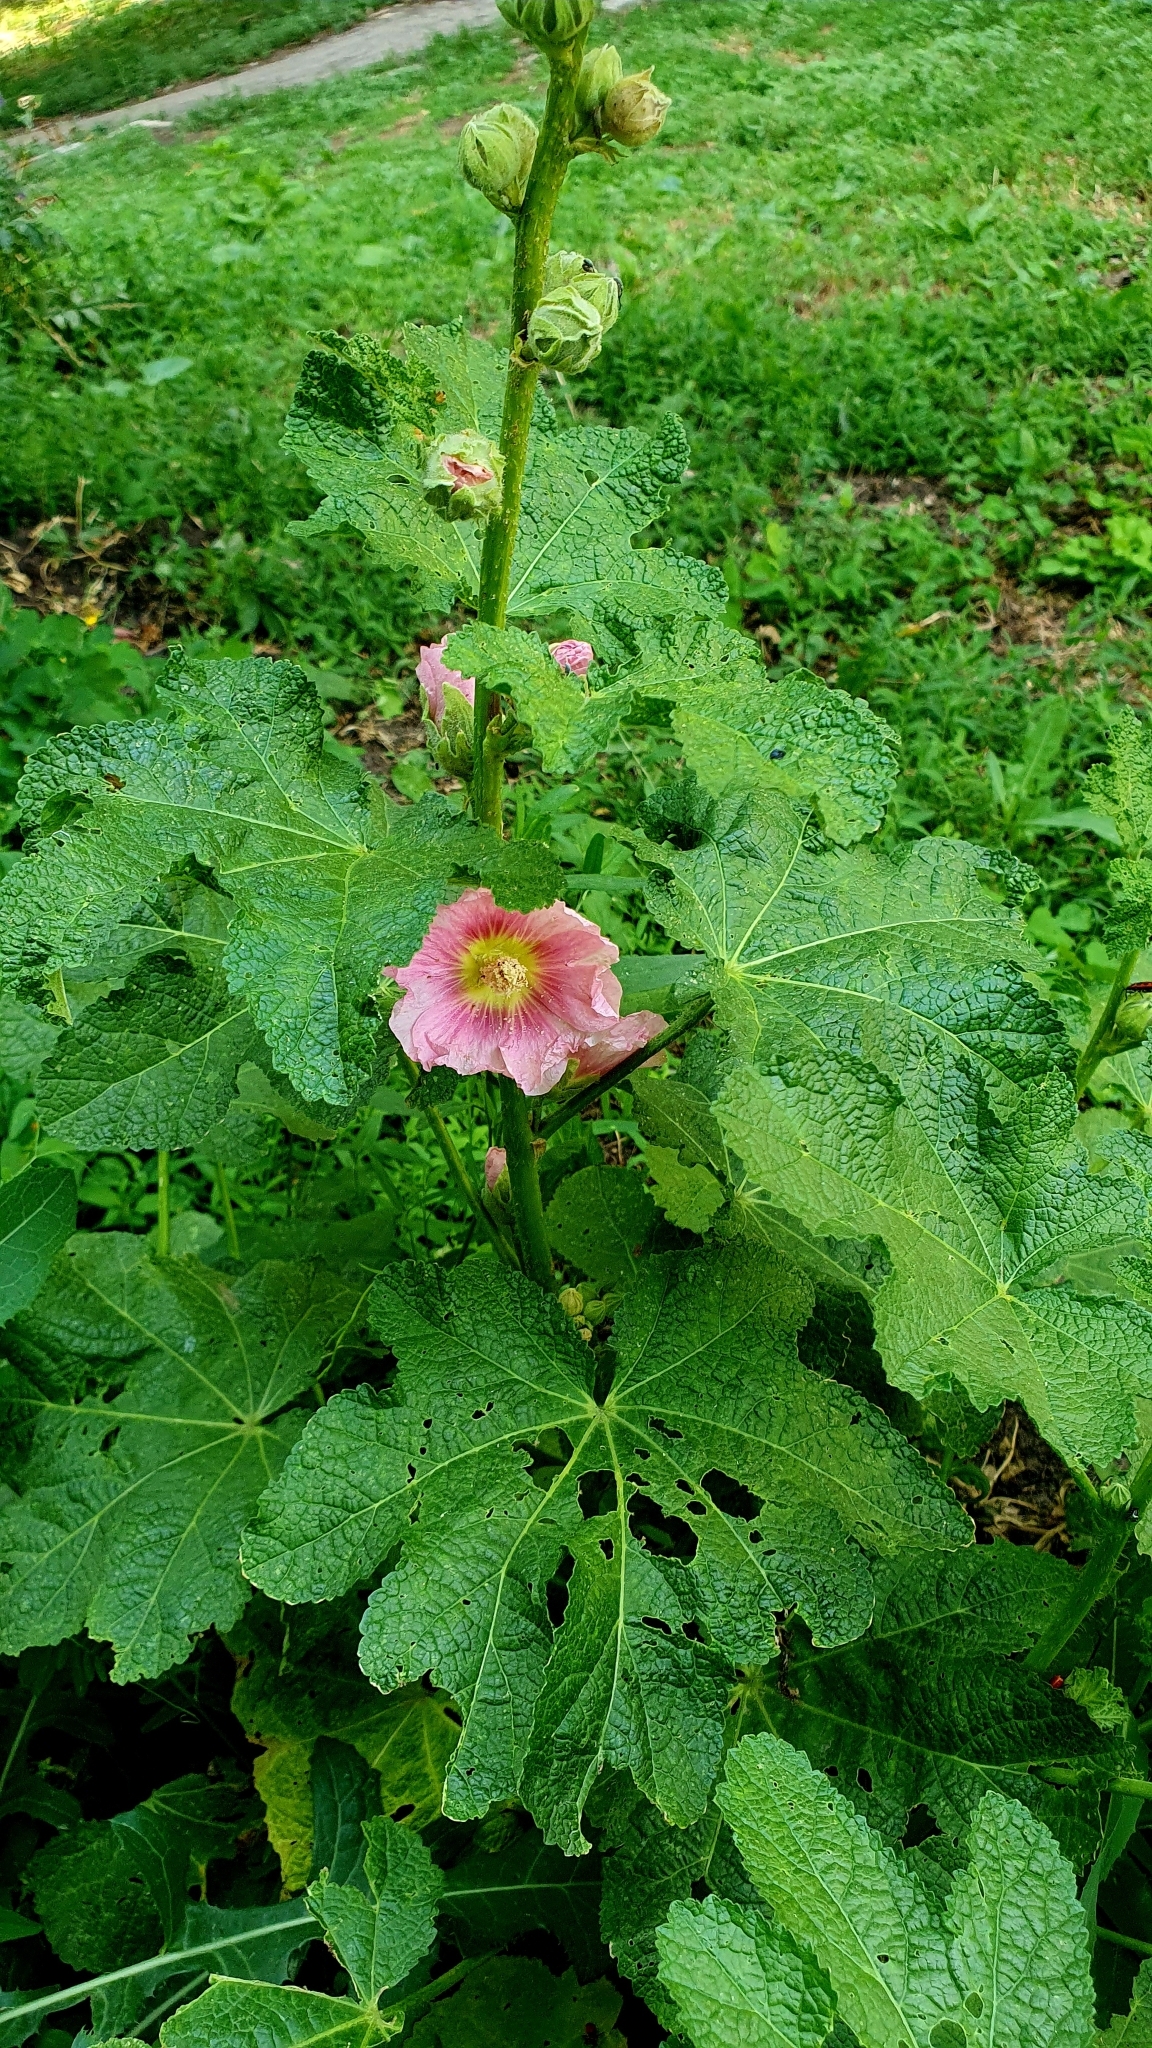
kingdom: Plantae
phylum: Tracheophyta
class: Magnoliopsida
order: Malvales
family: Malvaceae
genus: Alcea
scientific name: Alcea rosea
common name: Hollyhock
